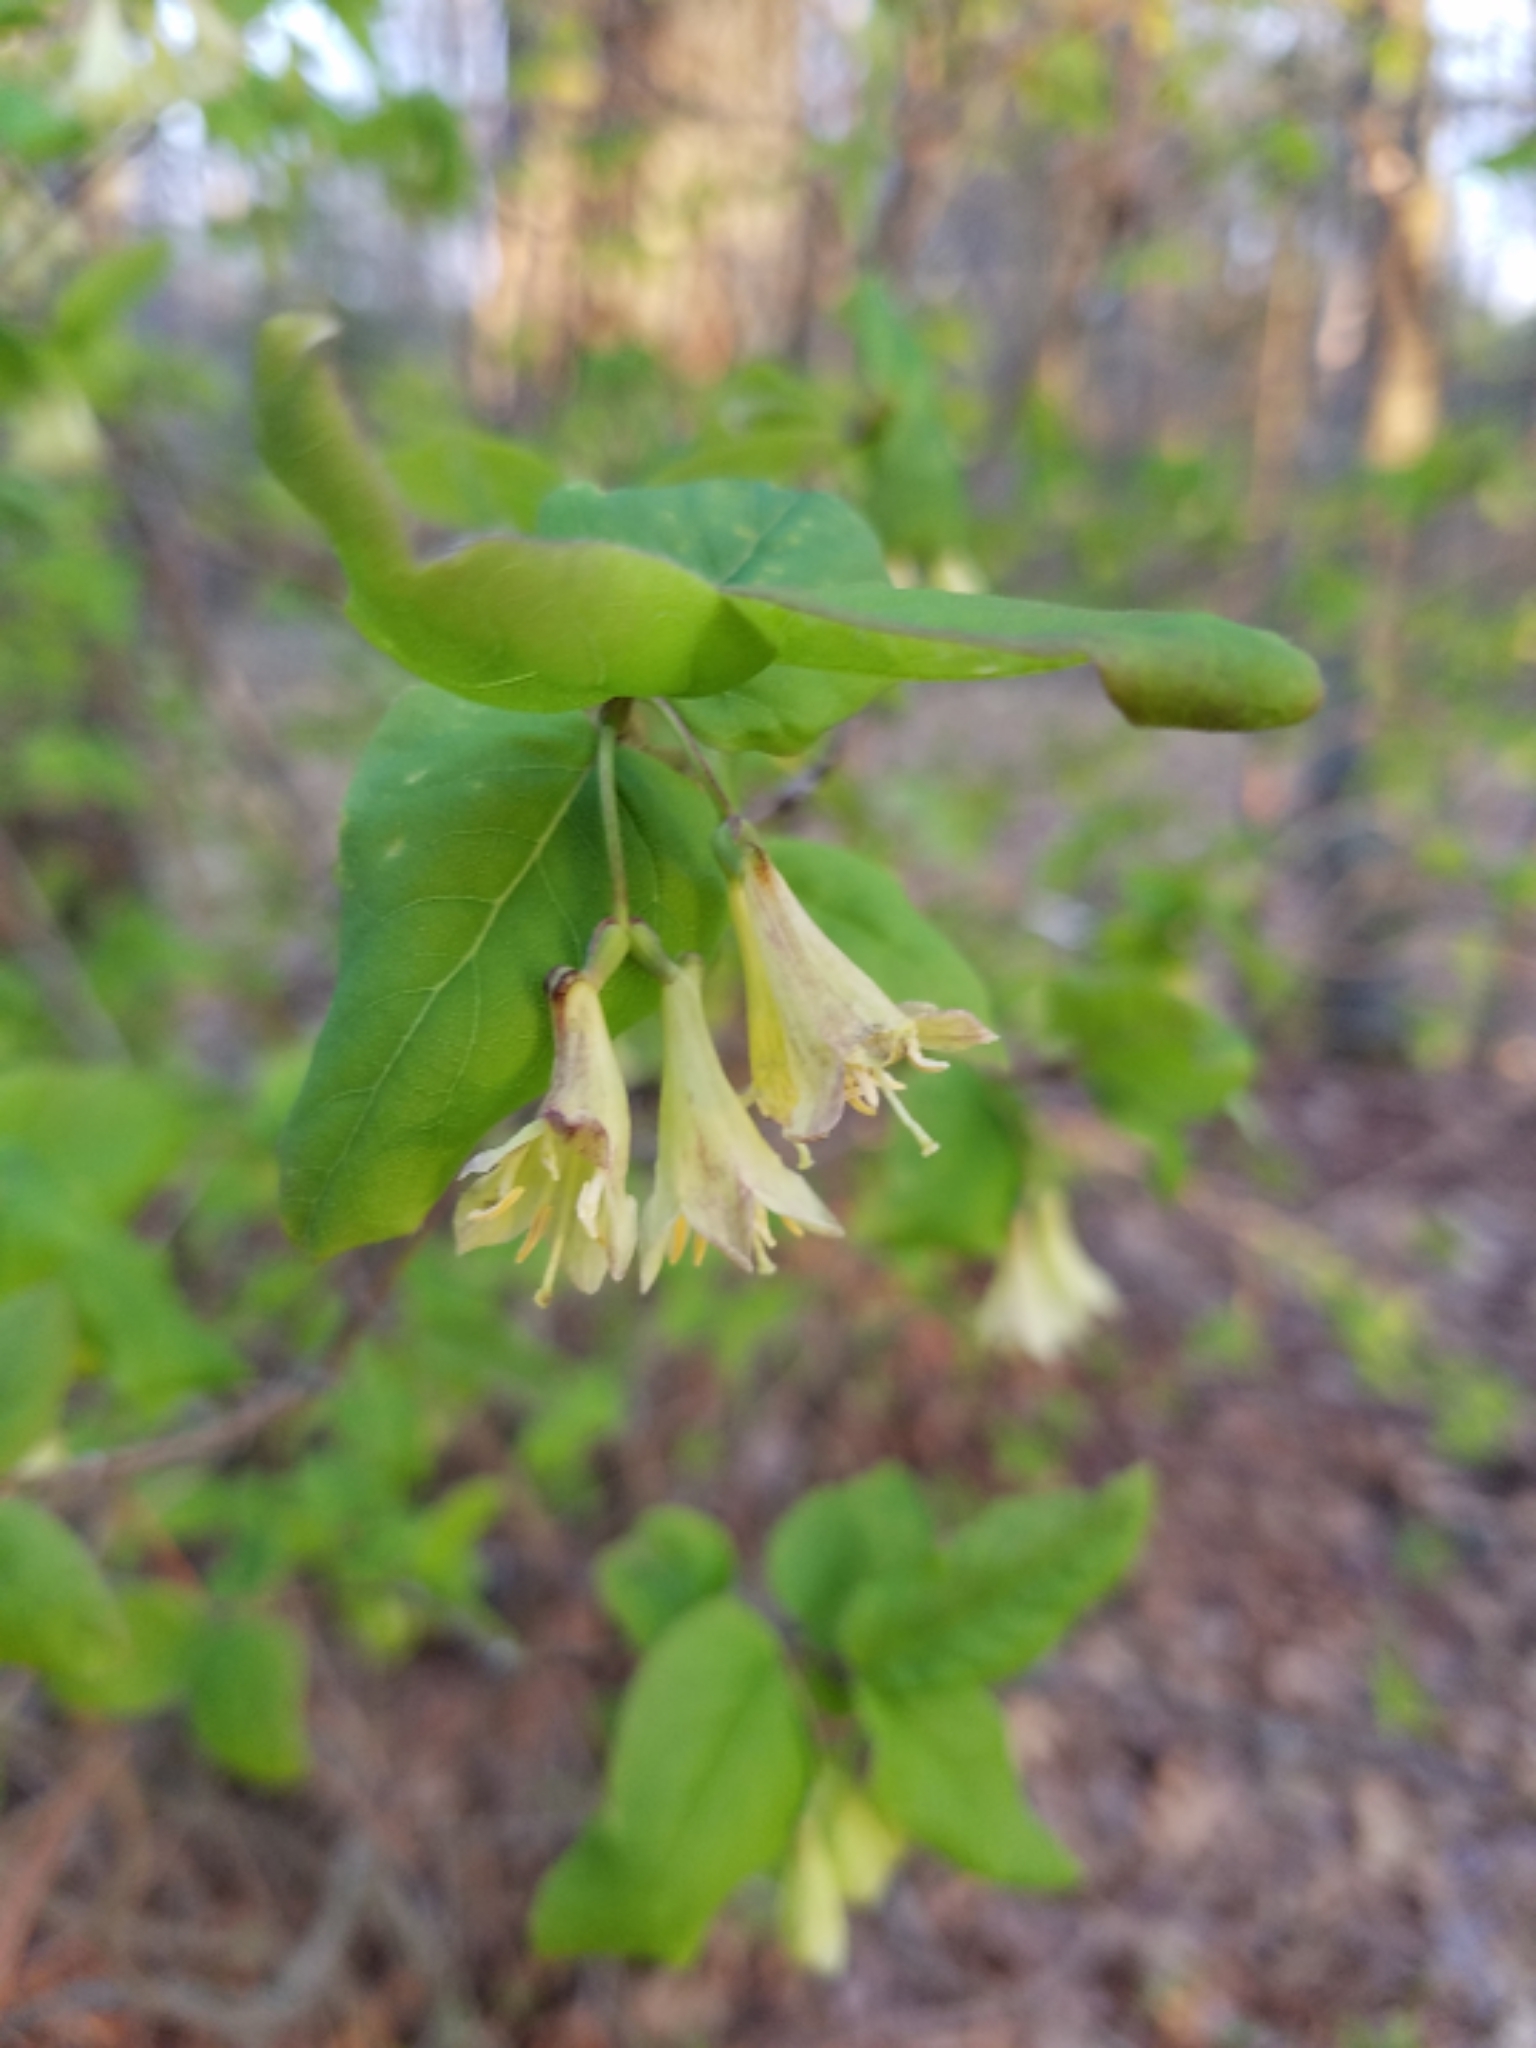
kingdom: Plantae
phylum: Tracheophyta
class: Magnoliopsida
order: Dipsacales
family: Caprifoliaceae
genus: Lonicera
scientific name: Lonicera canadensis
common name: American fly-honeysuckle
